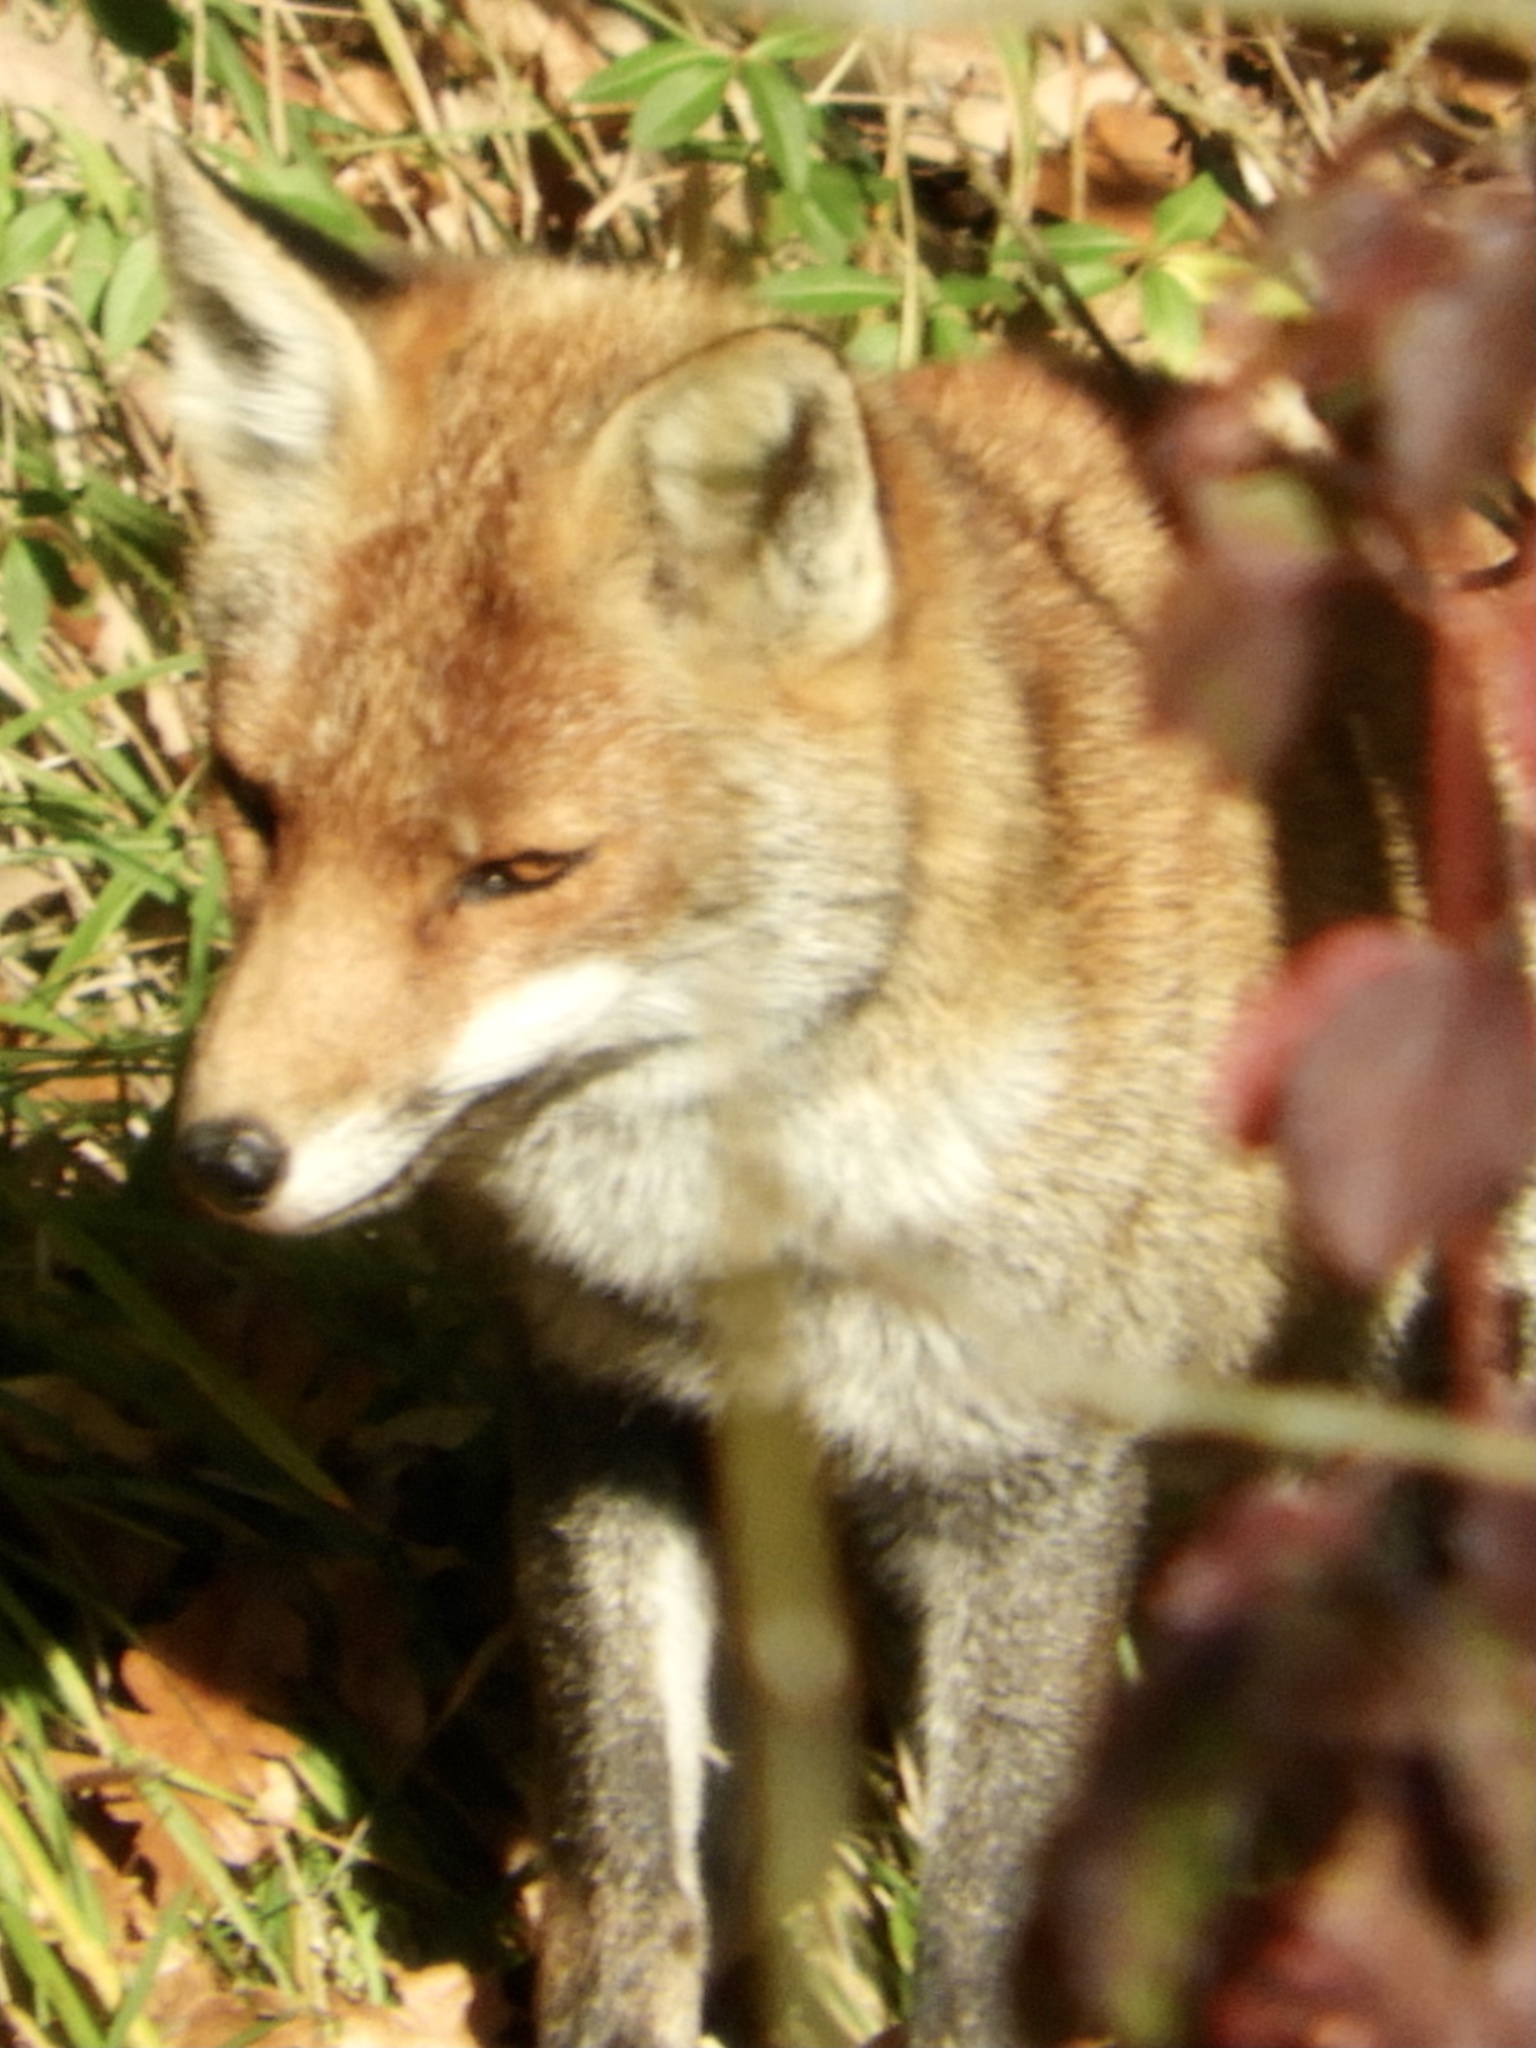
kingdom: Animalia
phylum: Chordata
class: Mammalia
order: Carnivora
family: Canidae
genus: Vulpes
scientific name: Vulpes vulpes
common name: Red fox
